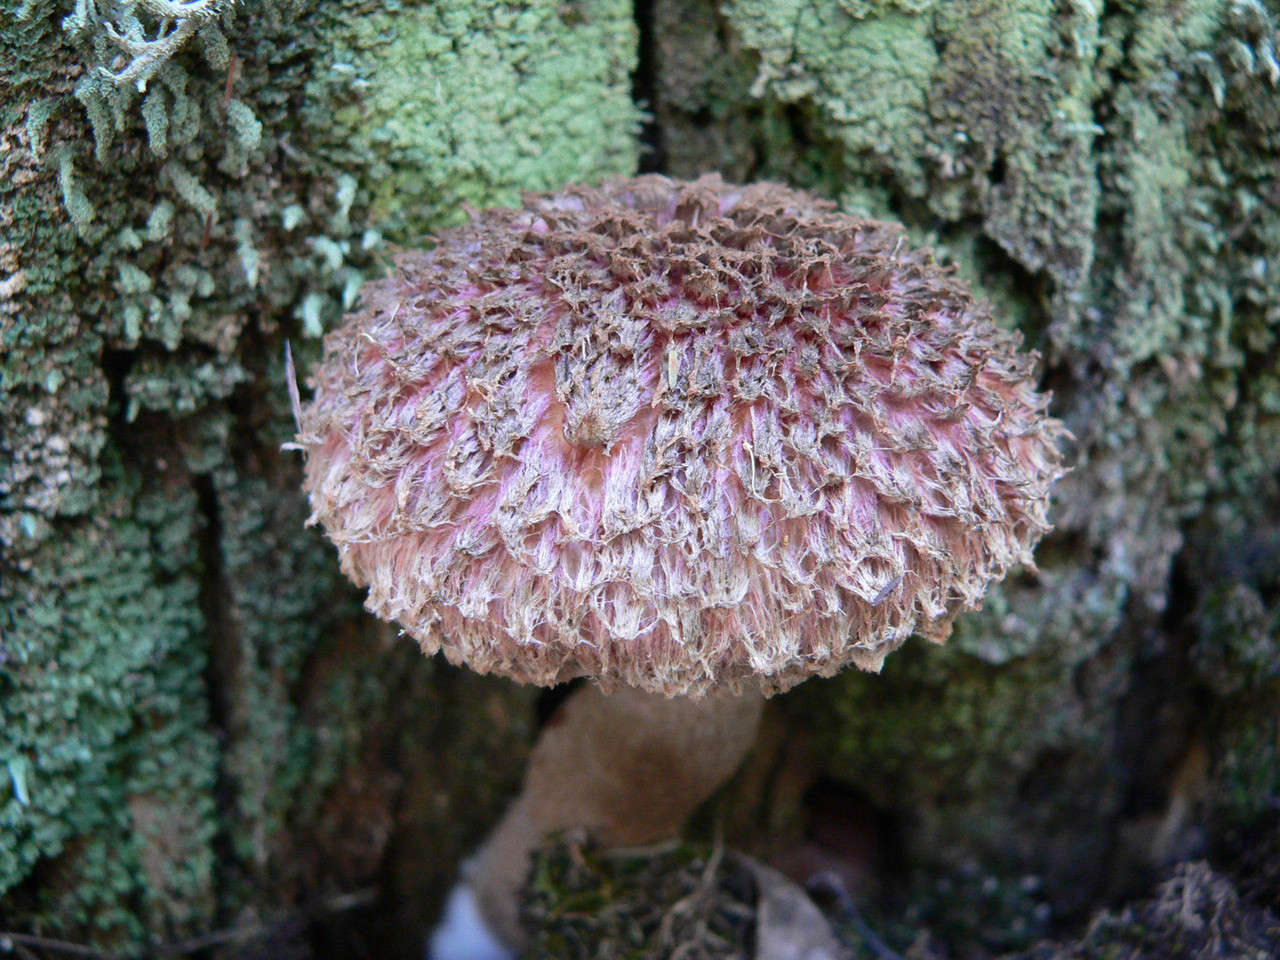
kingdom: Fungi
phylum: Basidiomycota
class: Agaricomycetes
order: Boletales
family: Boletaceae
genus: Boletellus
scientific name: Boletellus emodensis
